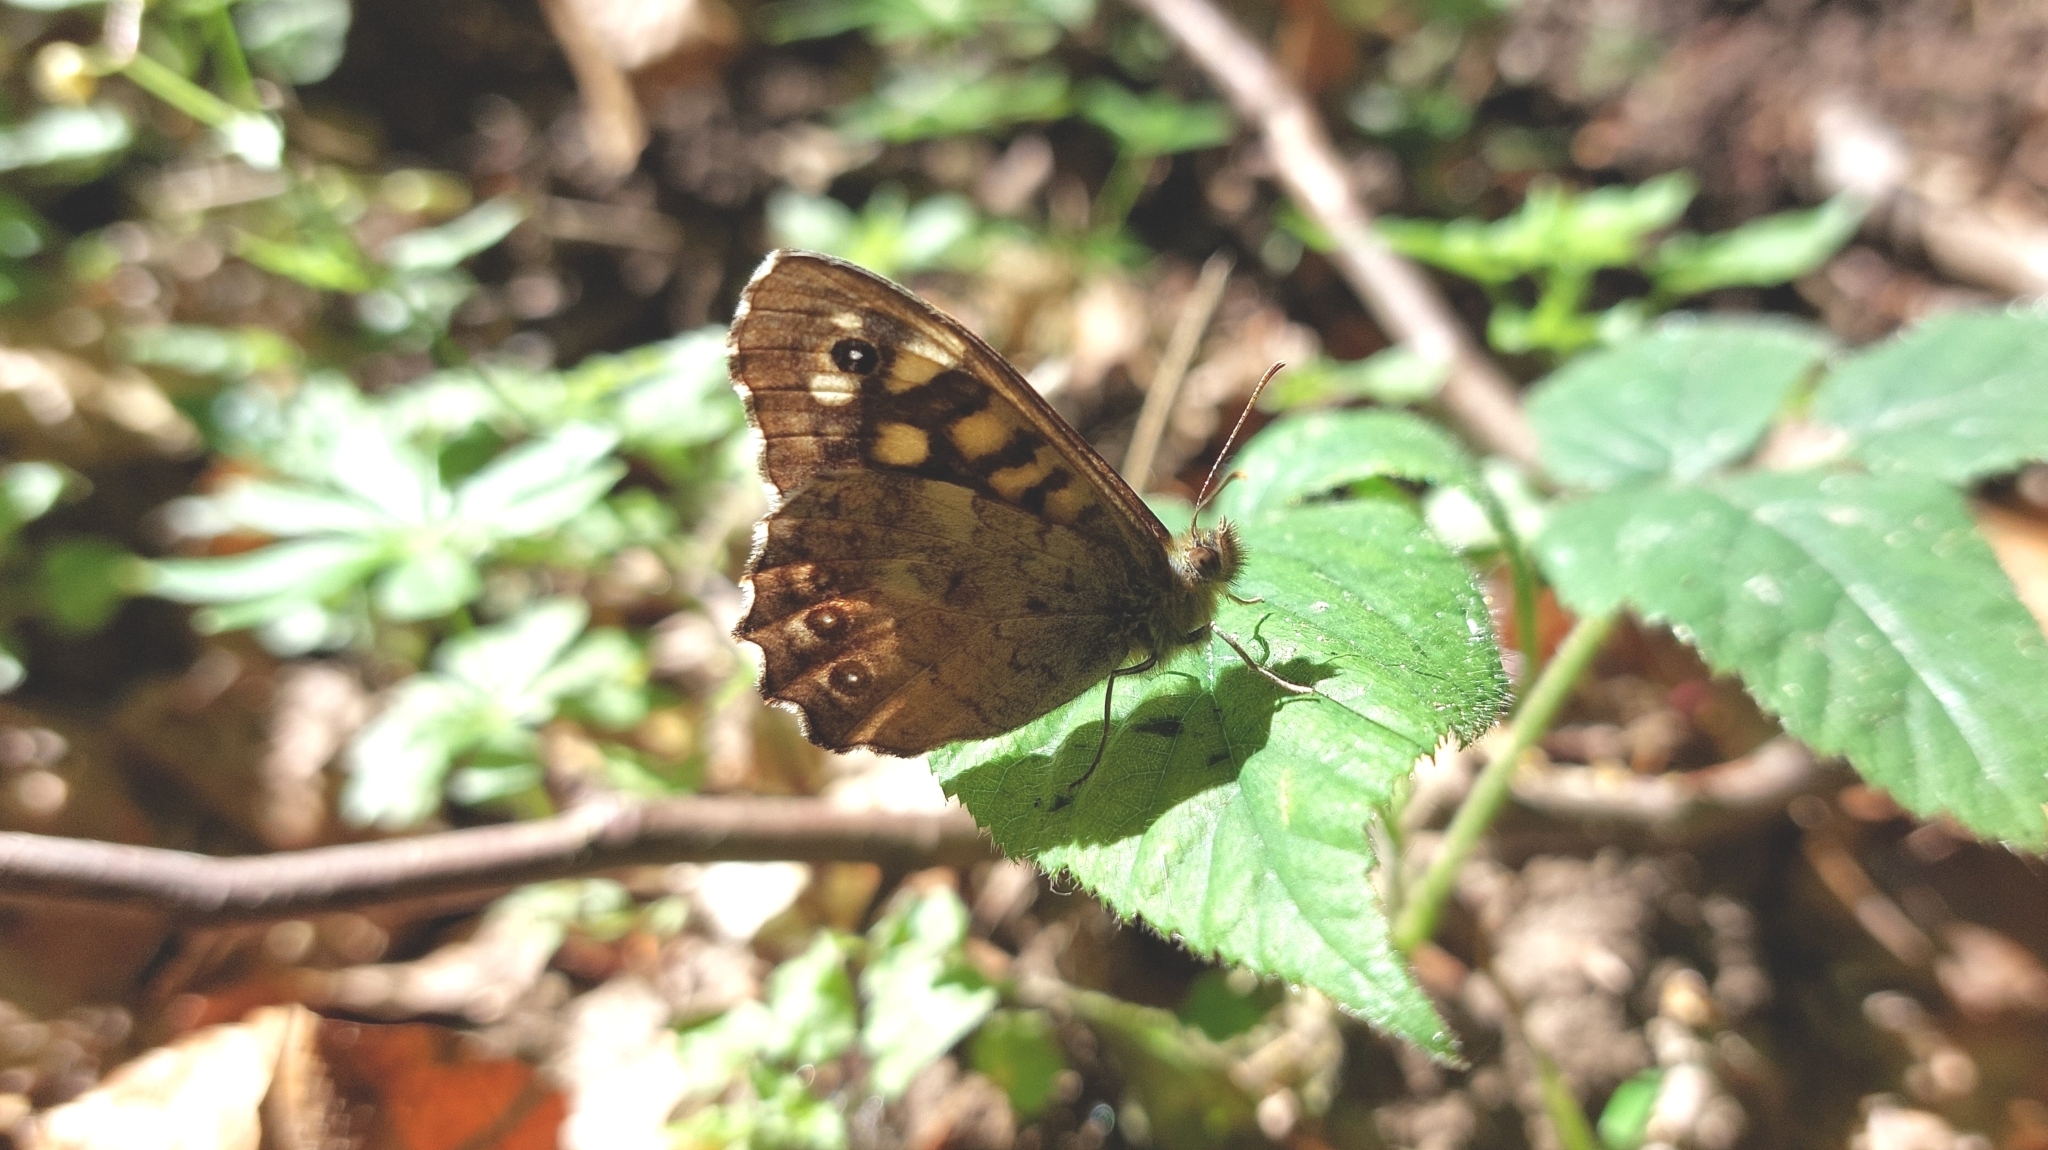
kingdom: Animalia
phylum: Arthropoda
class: Insecta
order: Lepidoptera
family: Nymphalidae
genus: Pararge
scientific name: Pararge aegeria
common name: Speckled wood
